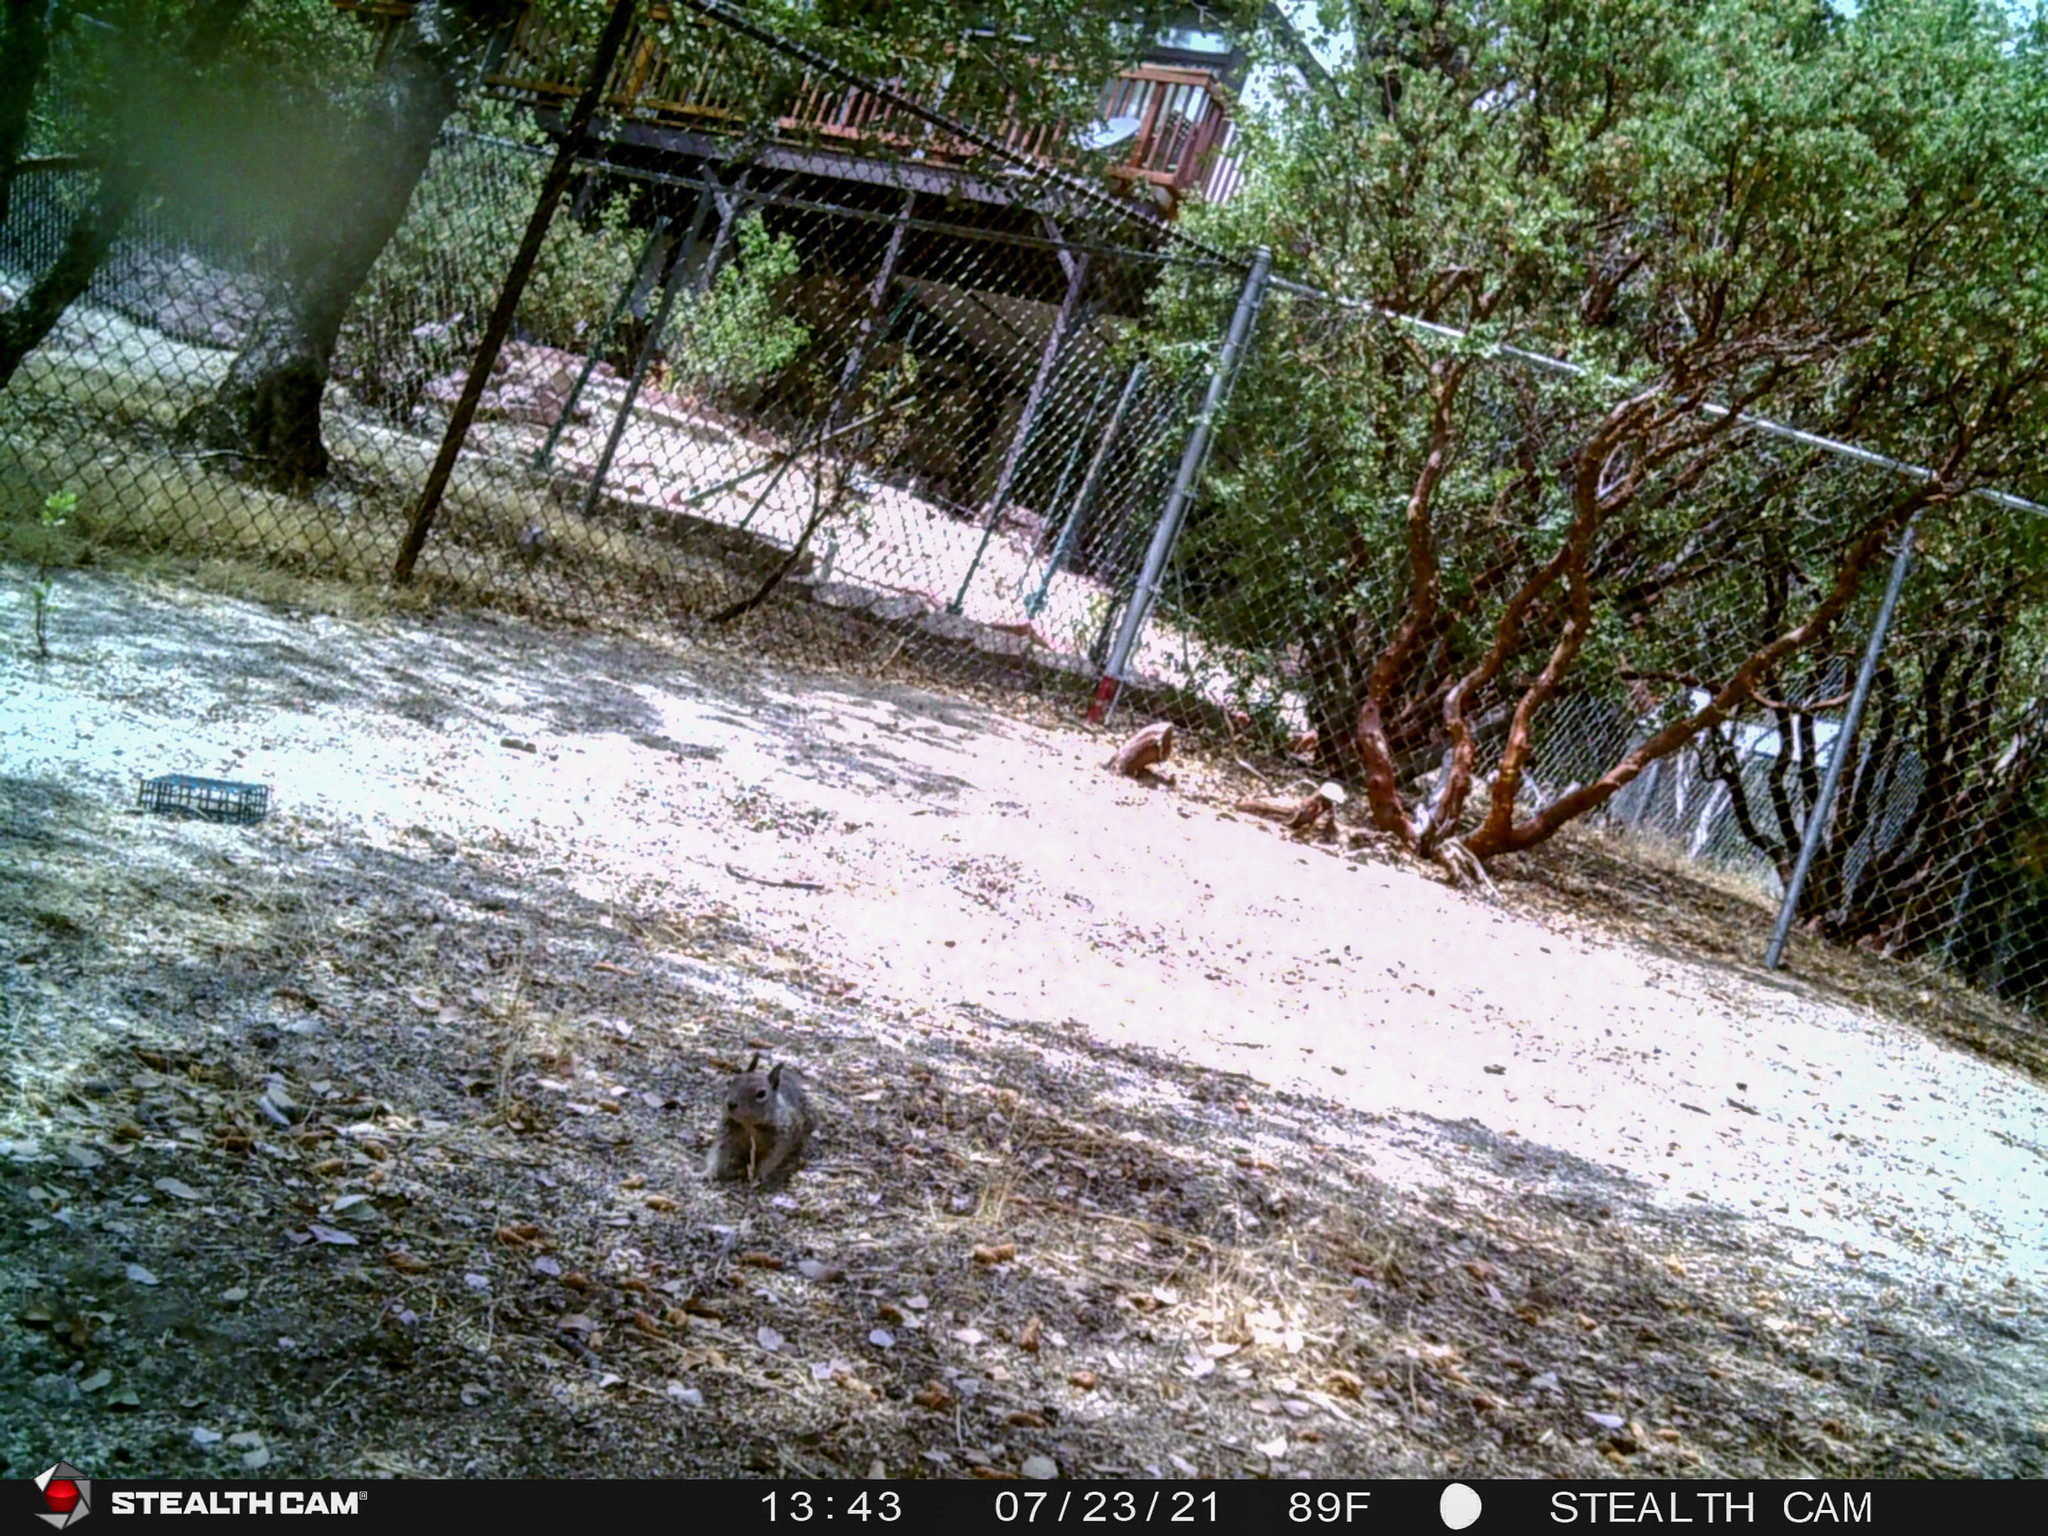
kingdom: Animalia
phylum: Chordata
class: Mammalia
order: Rodentia
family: Sciuridae
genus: Otospermophilus
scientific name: Otospermophilus beecheyi
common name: California ground squirrel
